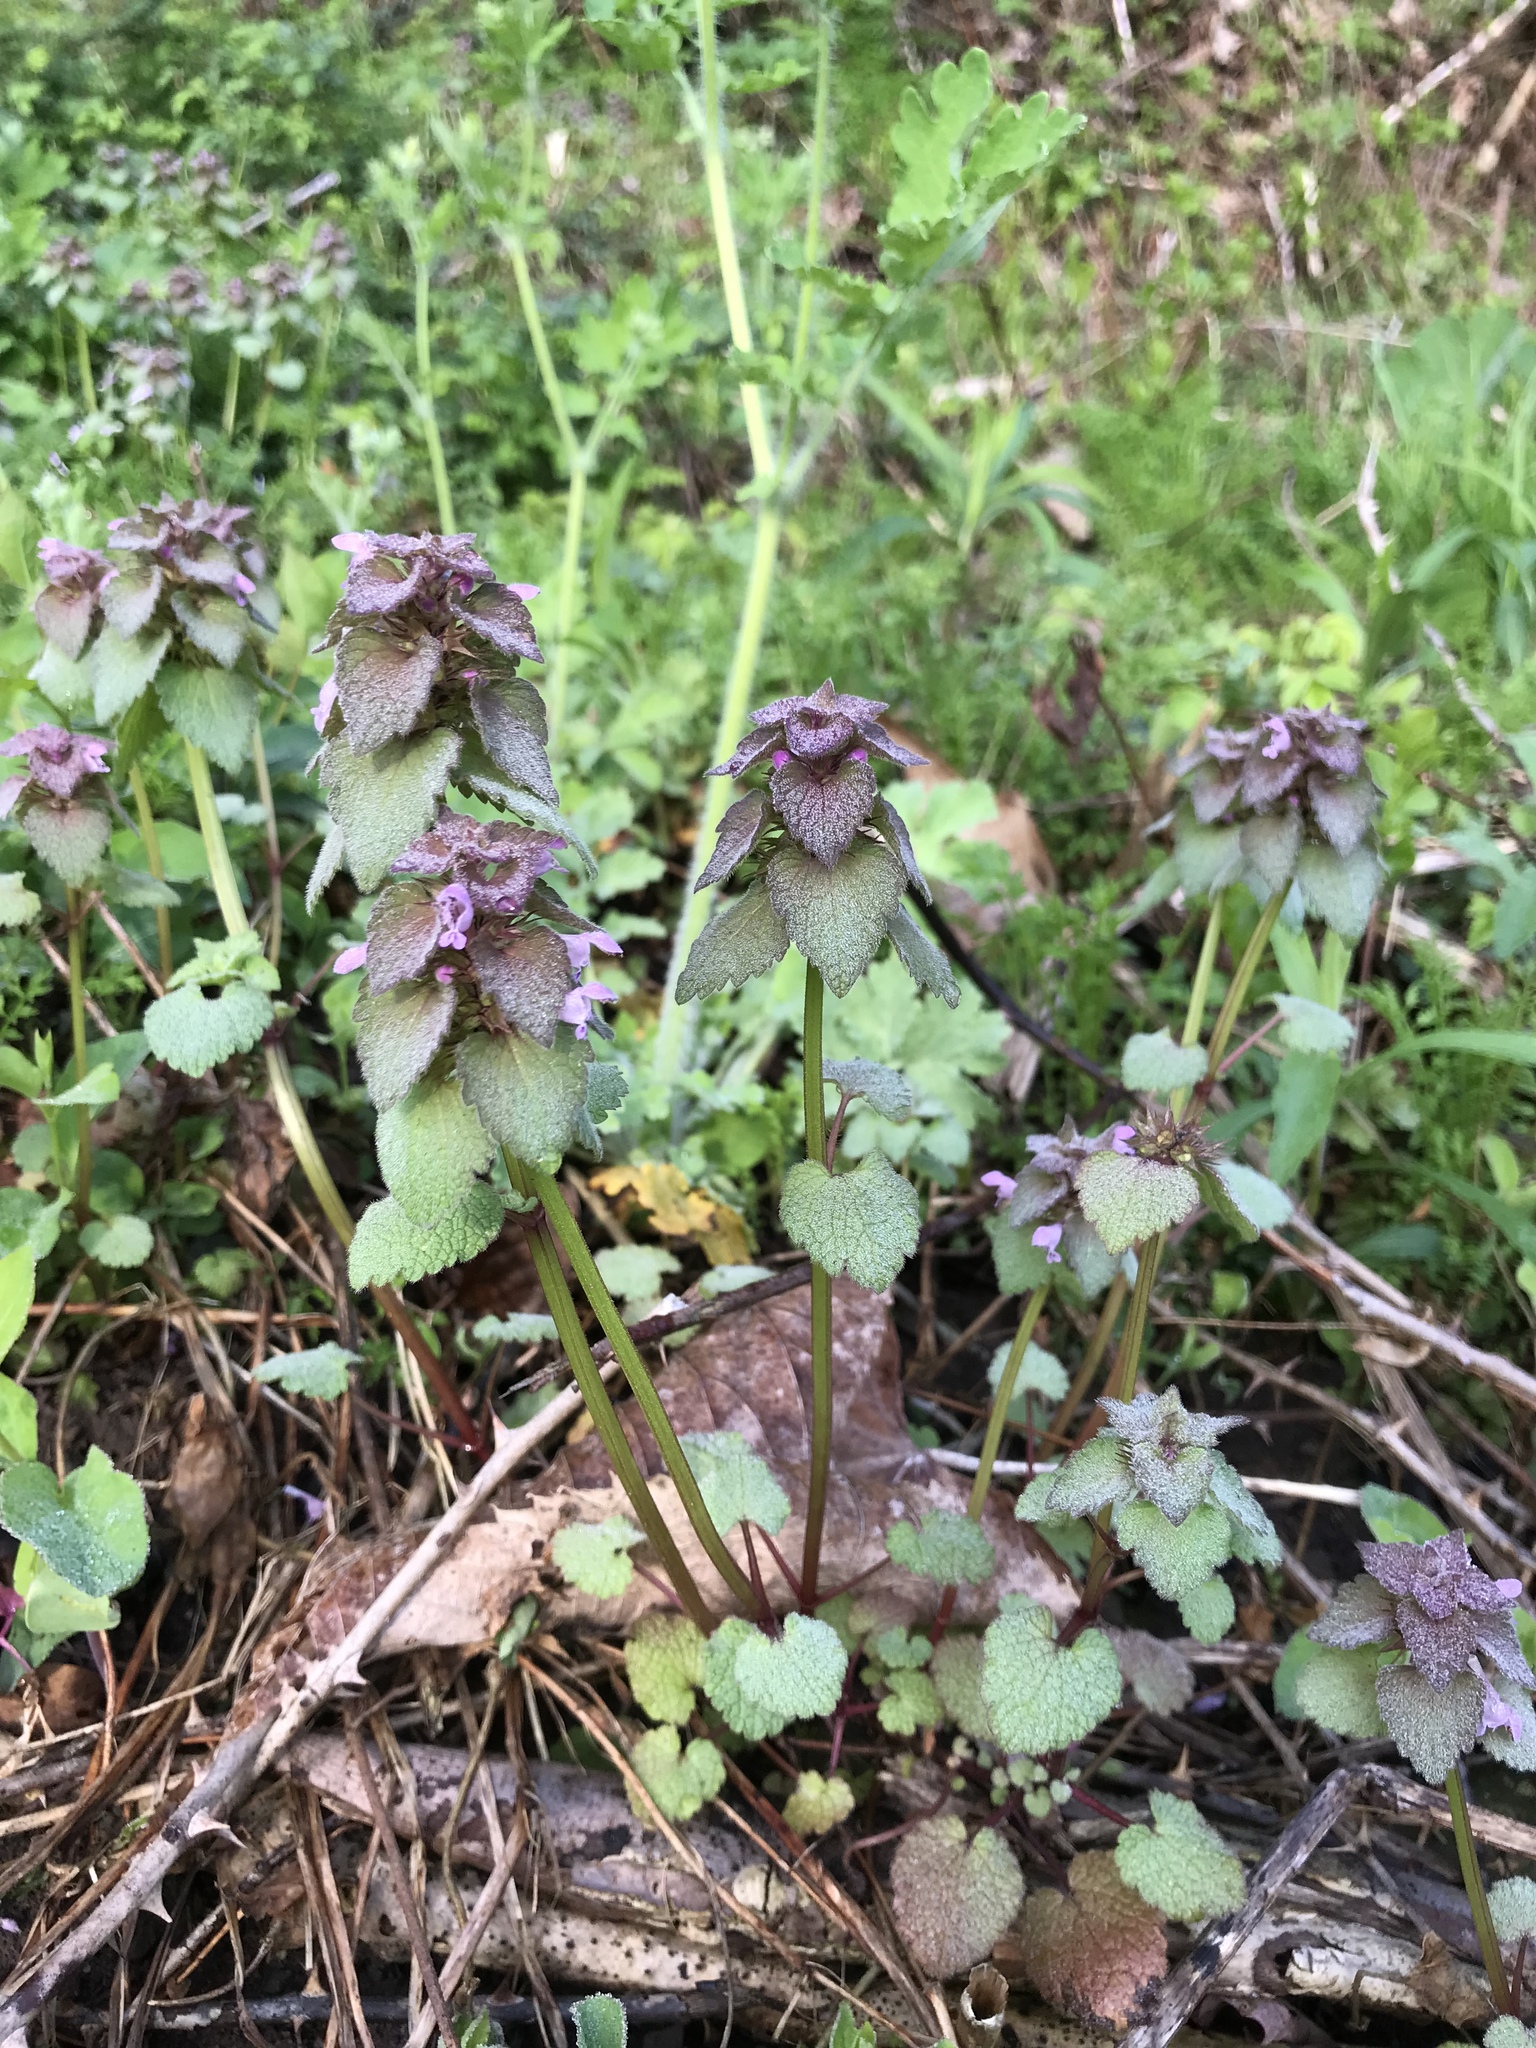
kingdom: Plantae
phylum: Tracheophyta
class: Magnoliopsida
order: Lamiales
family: Lamiaceae
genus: Lamium
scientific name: Lamium purpureum
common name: Red dead-nettle
